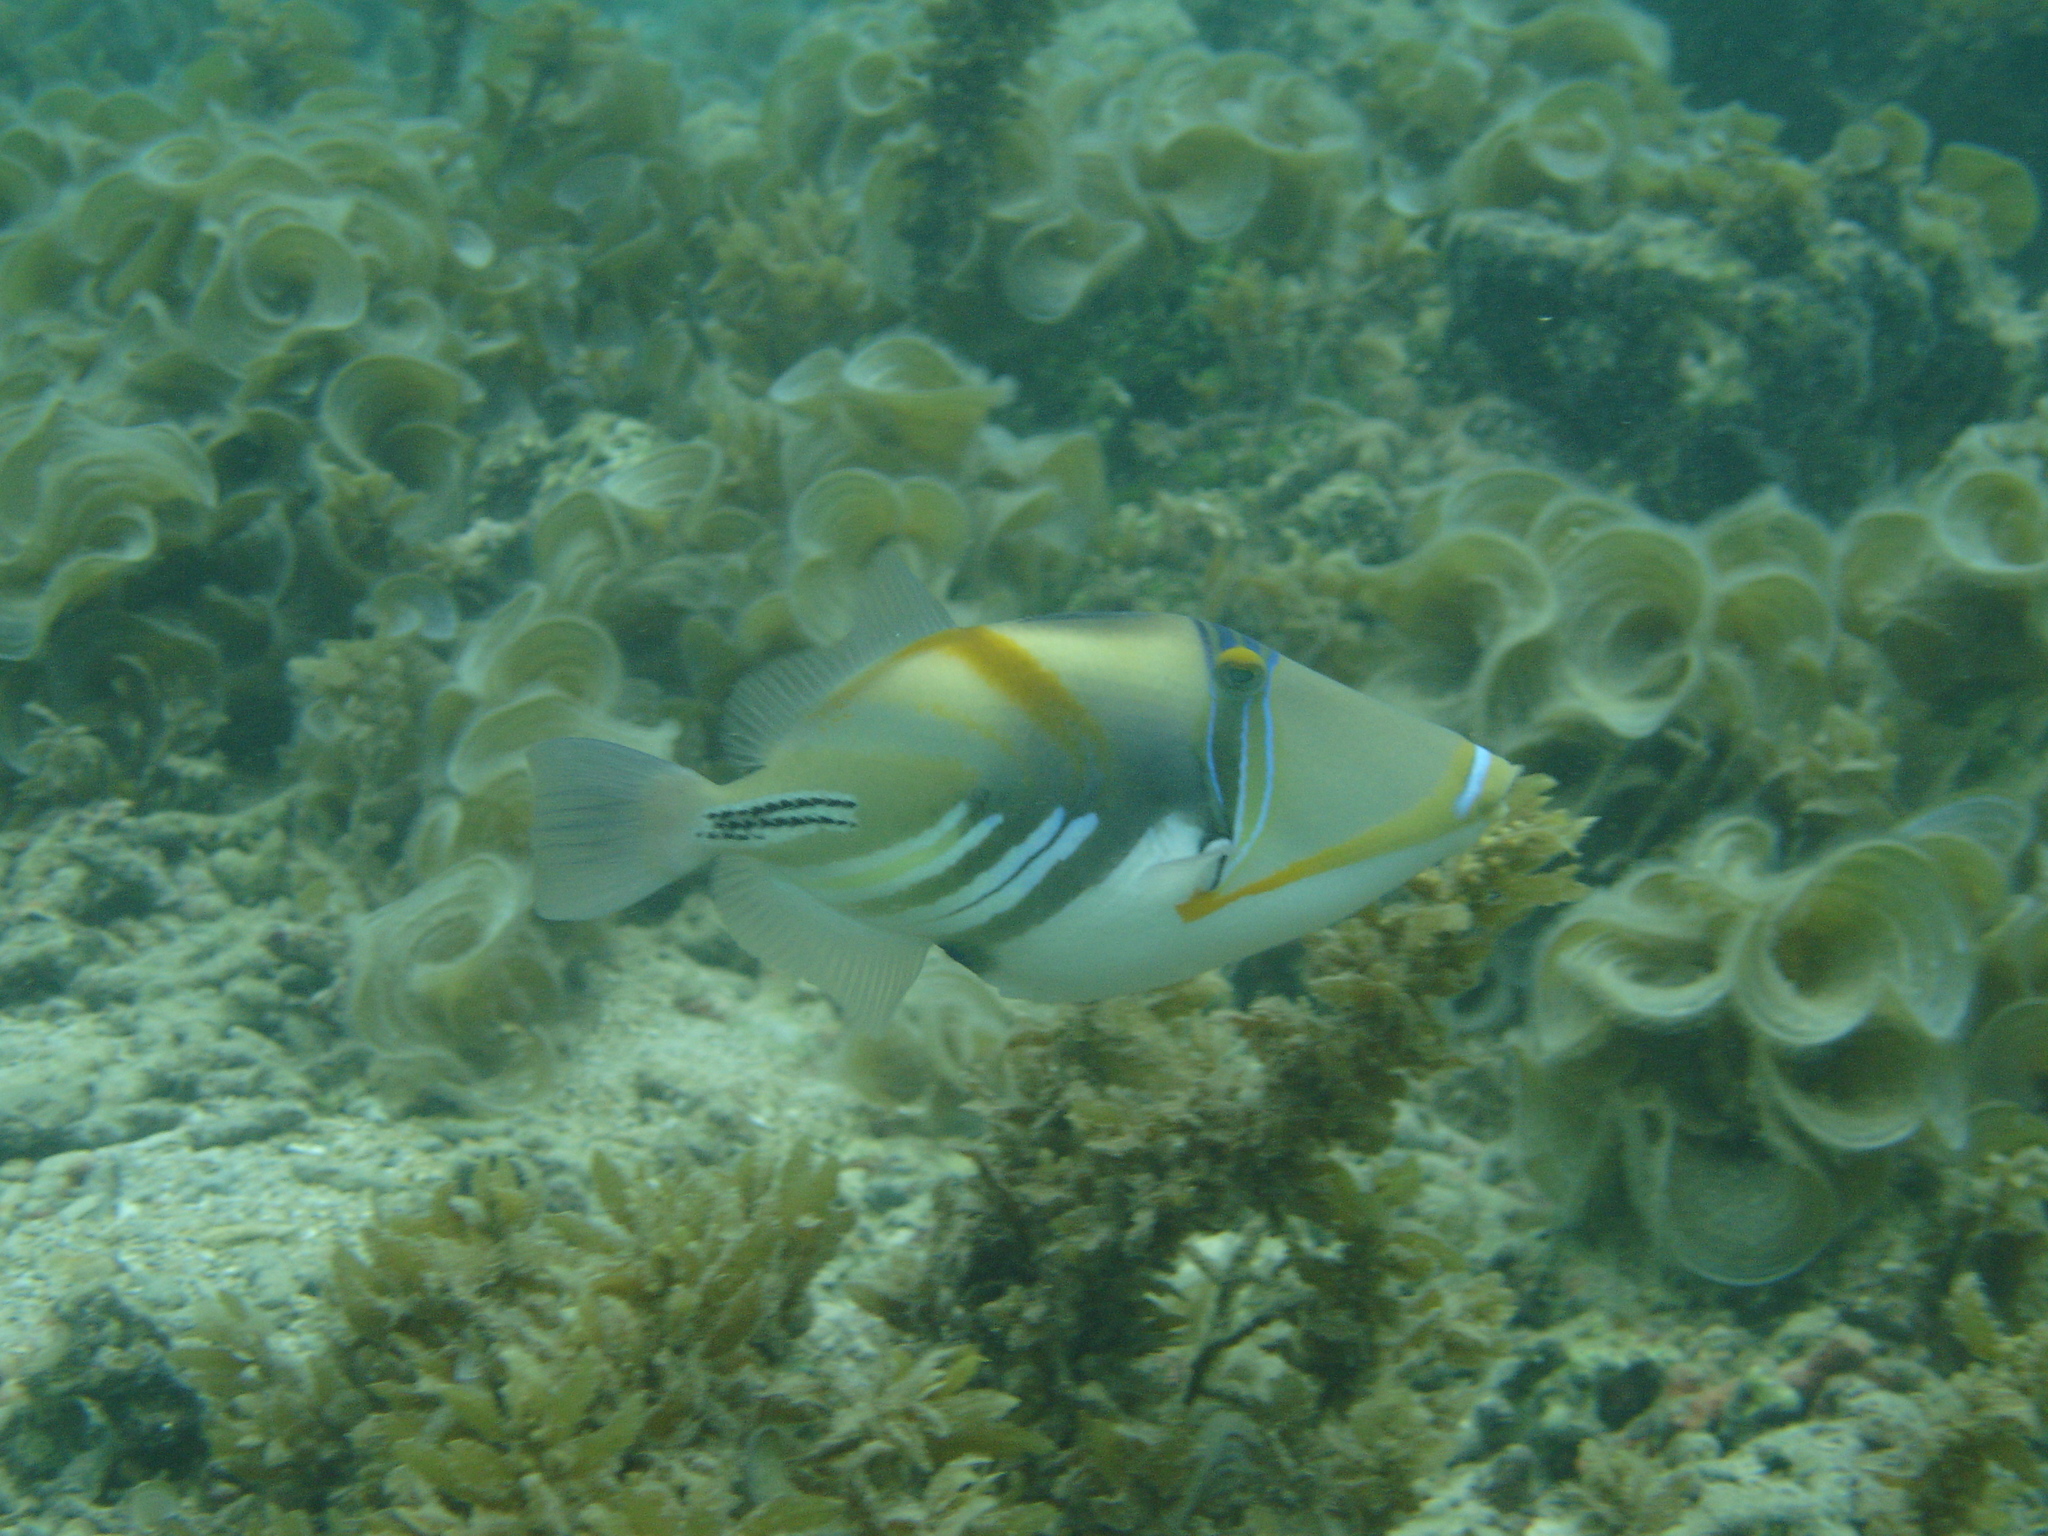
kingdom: Animalia
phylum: Chordata
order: Tetraodontiformes
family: Balistidae
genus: Rhinecanthus
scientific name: Rhinecanthus aculeatus
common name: White-banded triggerfish
